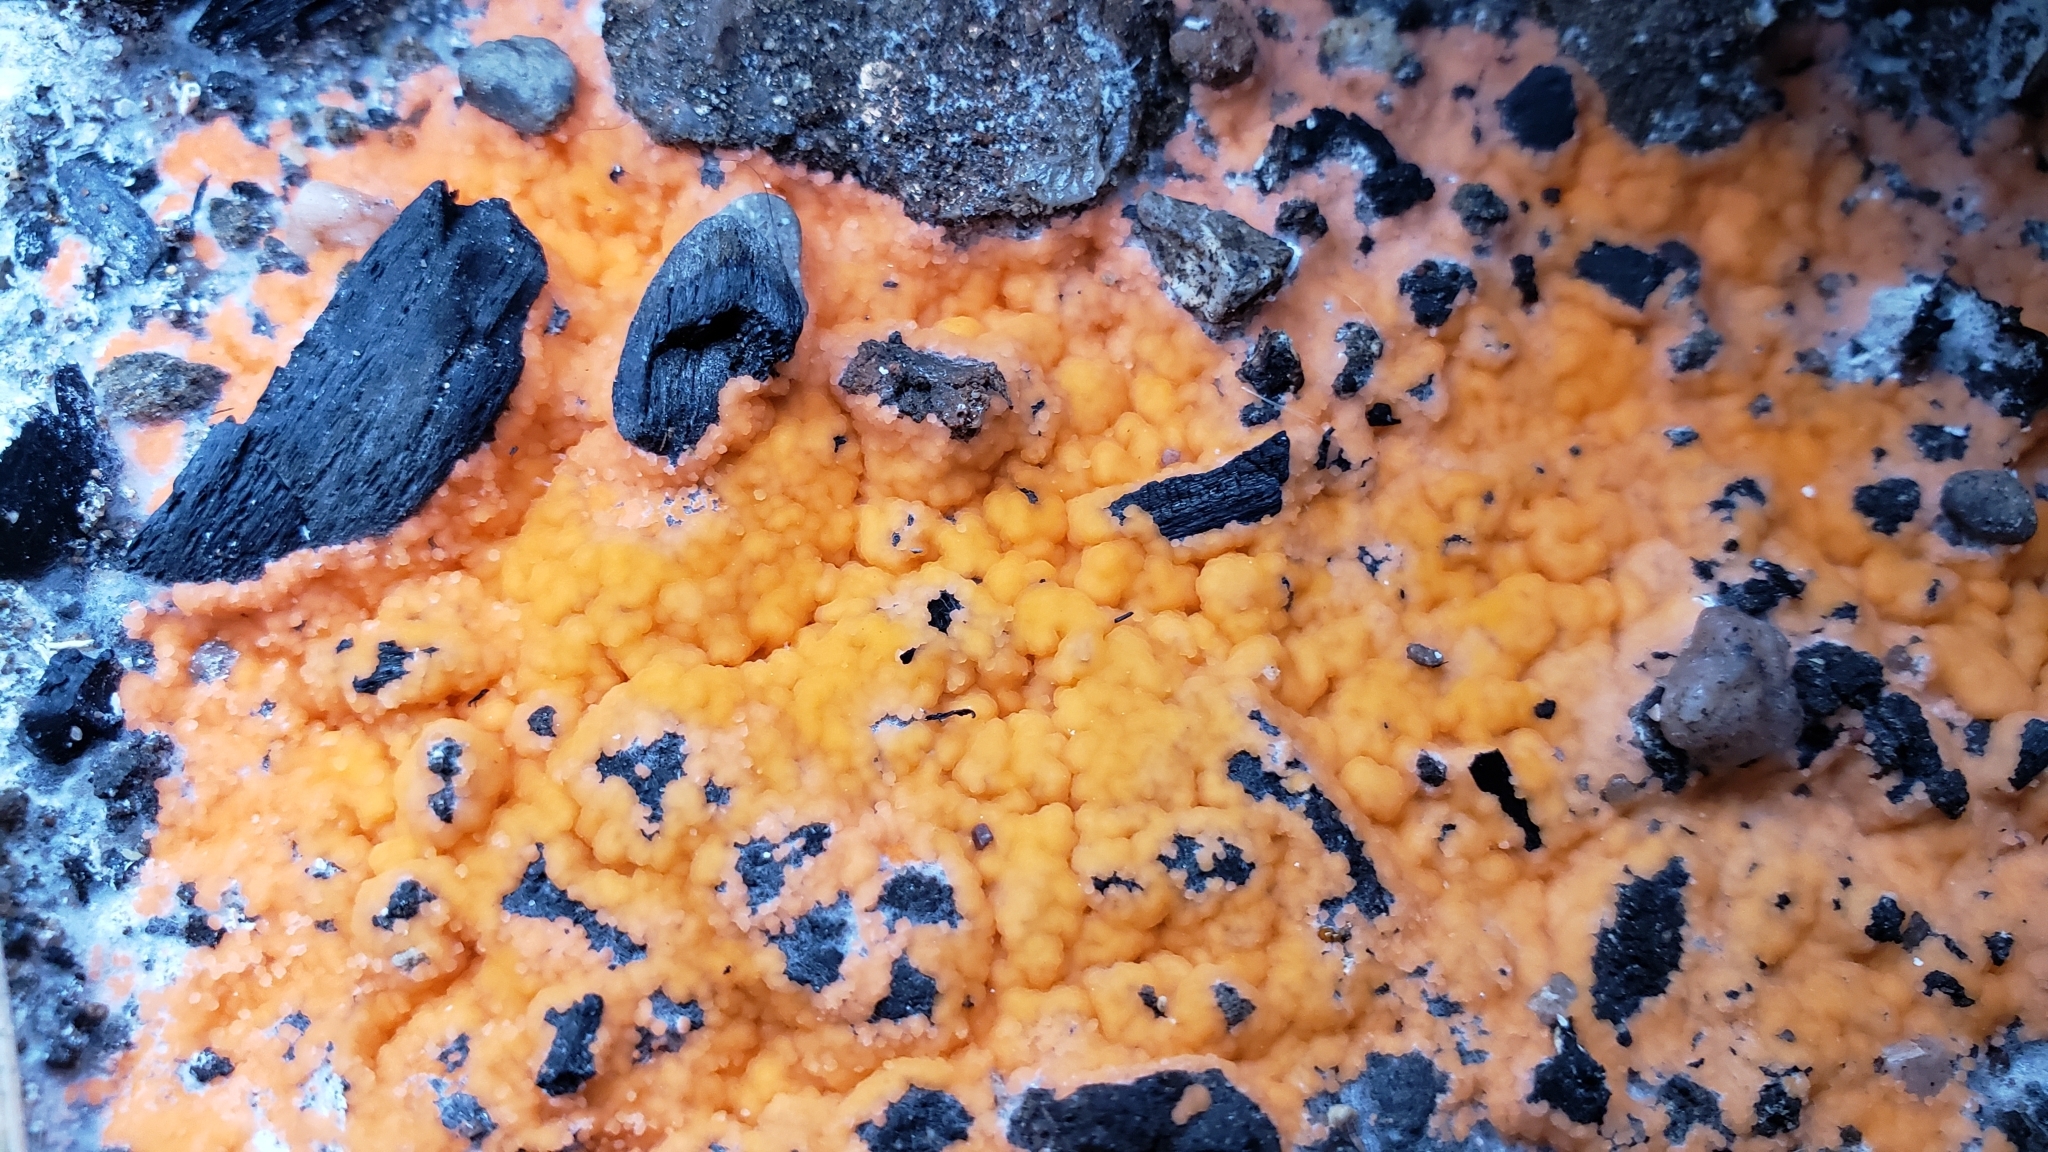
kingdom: Fungi
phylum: Ascomycota
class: Pezizomycetes
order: Pezizales
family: Pyronemataceae
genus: Pyronema
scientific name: Pyronema omphalodes
